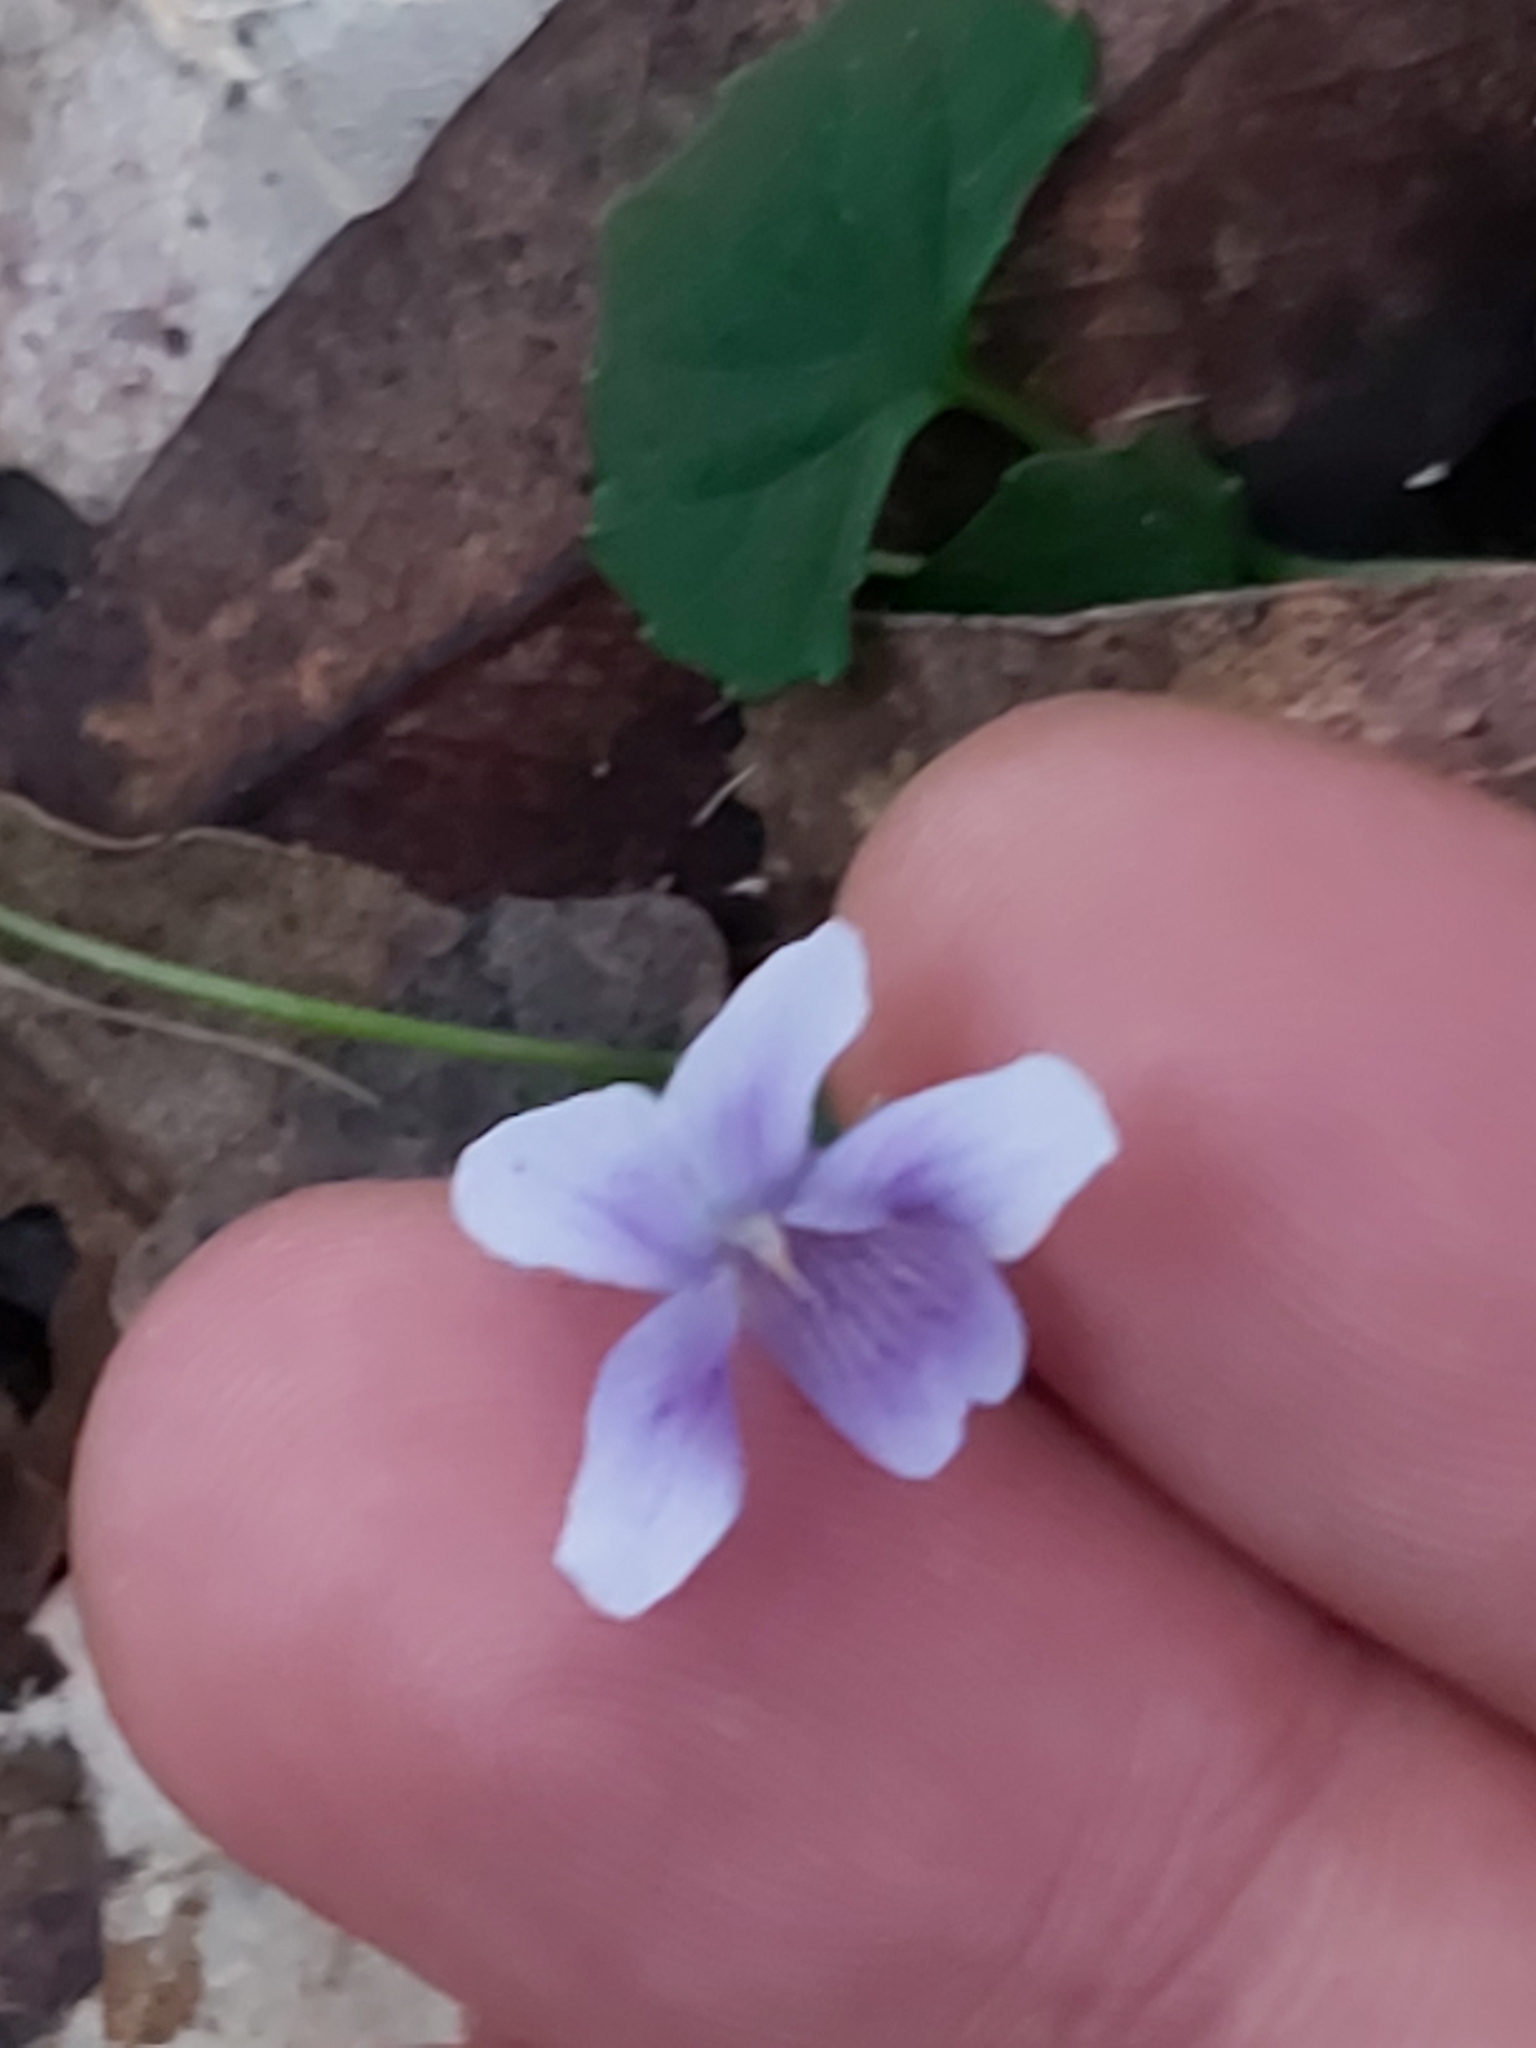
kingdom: Plantae
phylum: Tracheophyta
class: Magnoliopsida
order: Malpighiales
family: Violaceae
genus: Viola
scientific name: Viola silicestris
